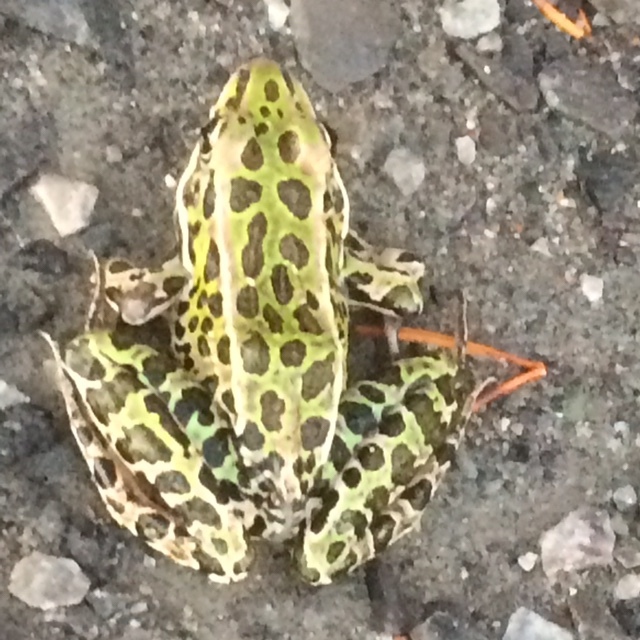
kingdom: Animalia
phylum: Chordata
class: Amphibia
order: Anura
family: Ranidae
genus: Lithobates
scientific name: Lithobates pipiens
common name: Northern leopard frog
